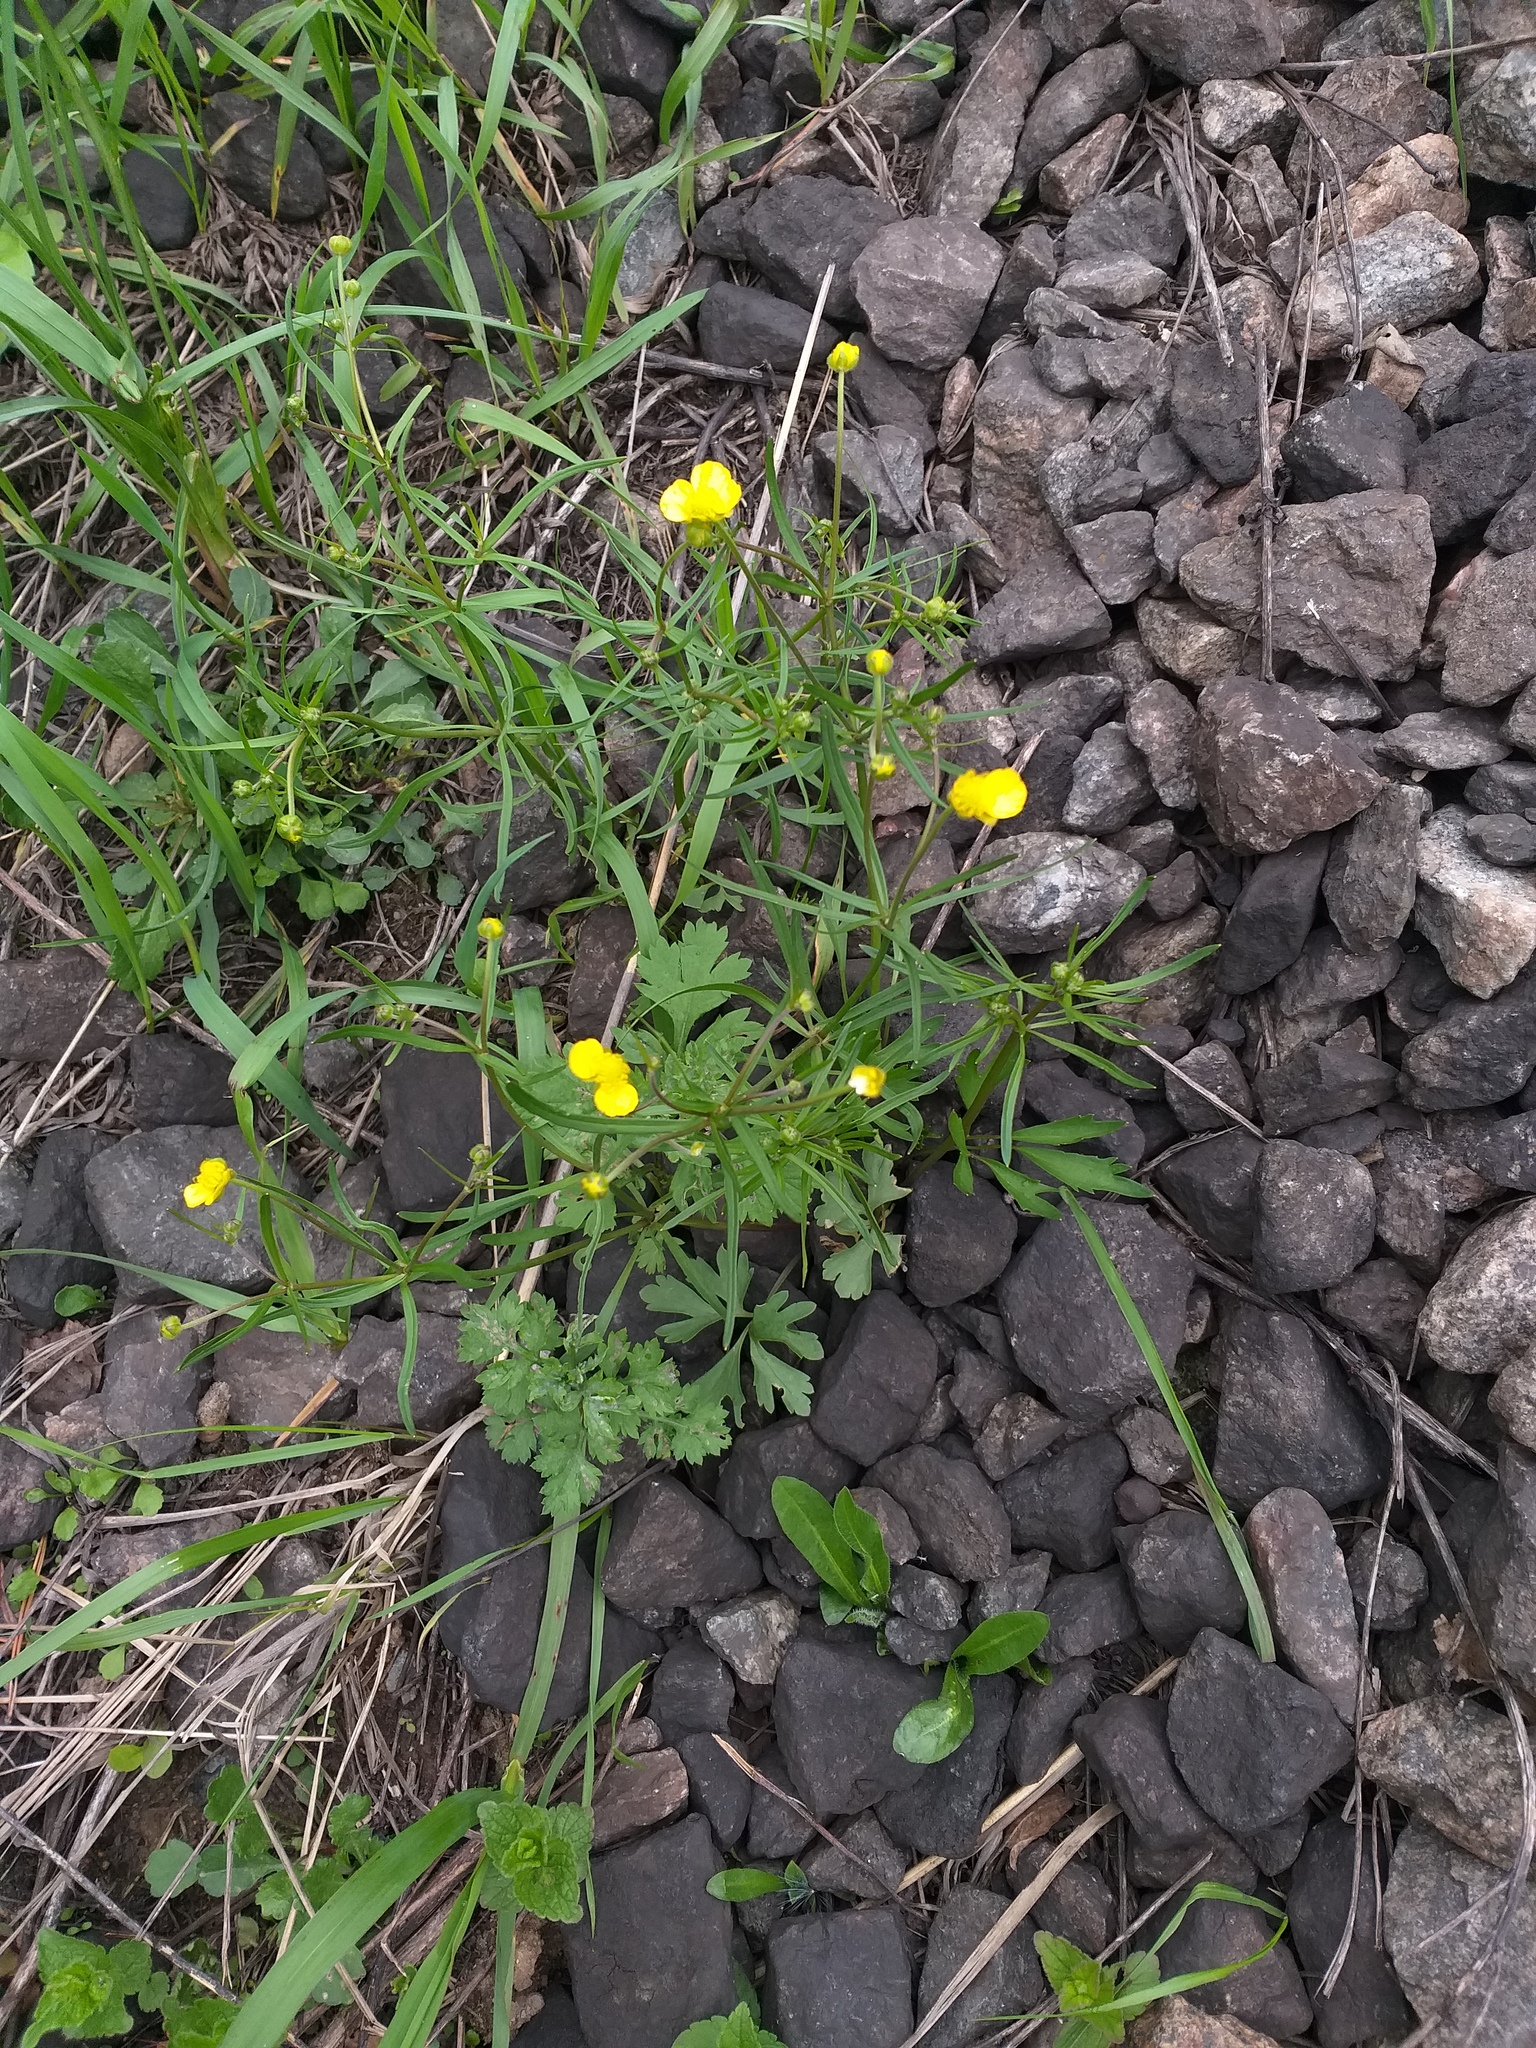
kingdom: Plantae
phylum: Tracheophyta
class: Magnoliopsida
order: Ranunculales
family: Ranunculaceae
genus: Ranunculus
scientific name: Ranunculus auricomus
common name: Goldilocks buttercup
